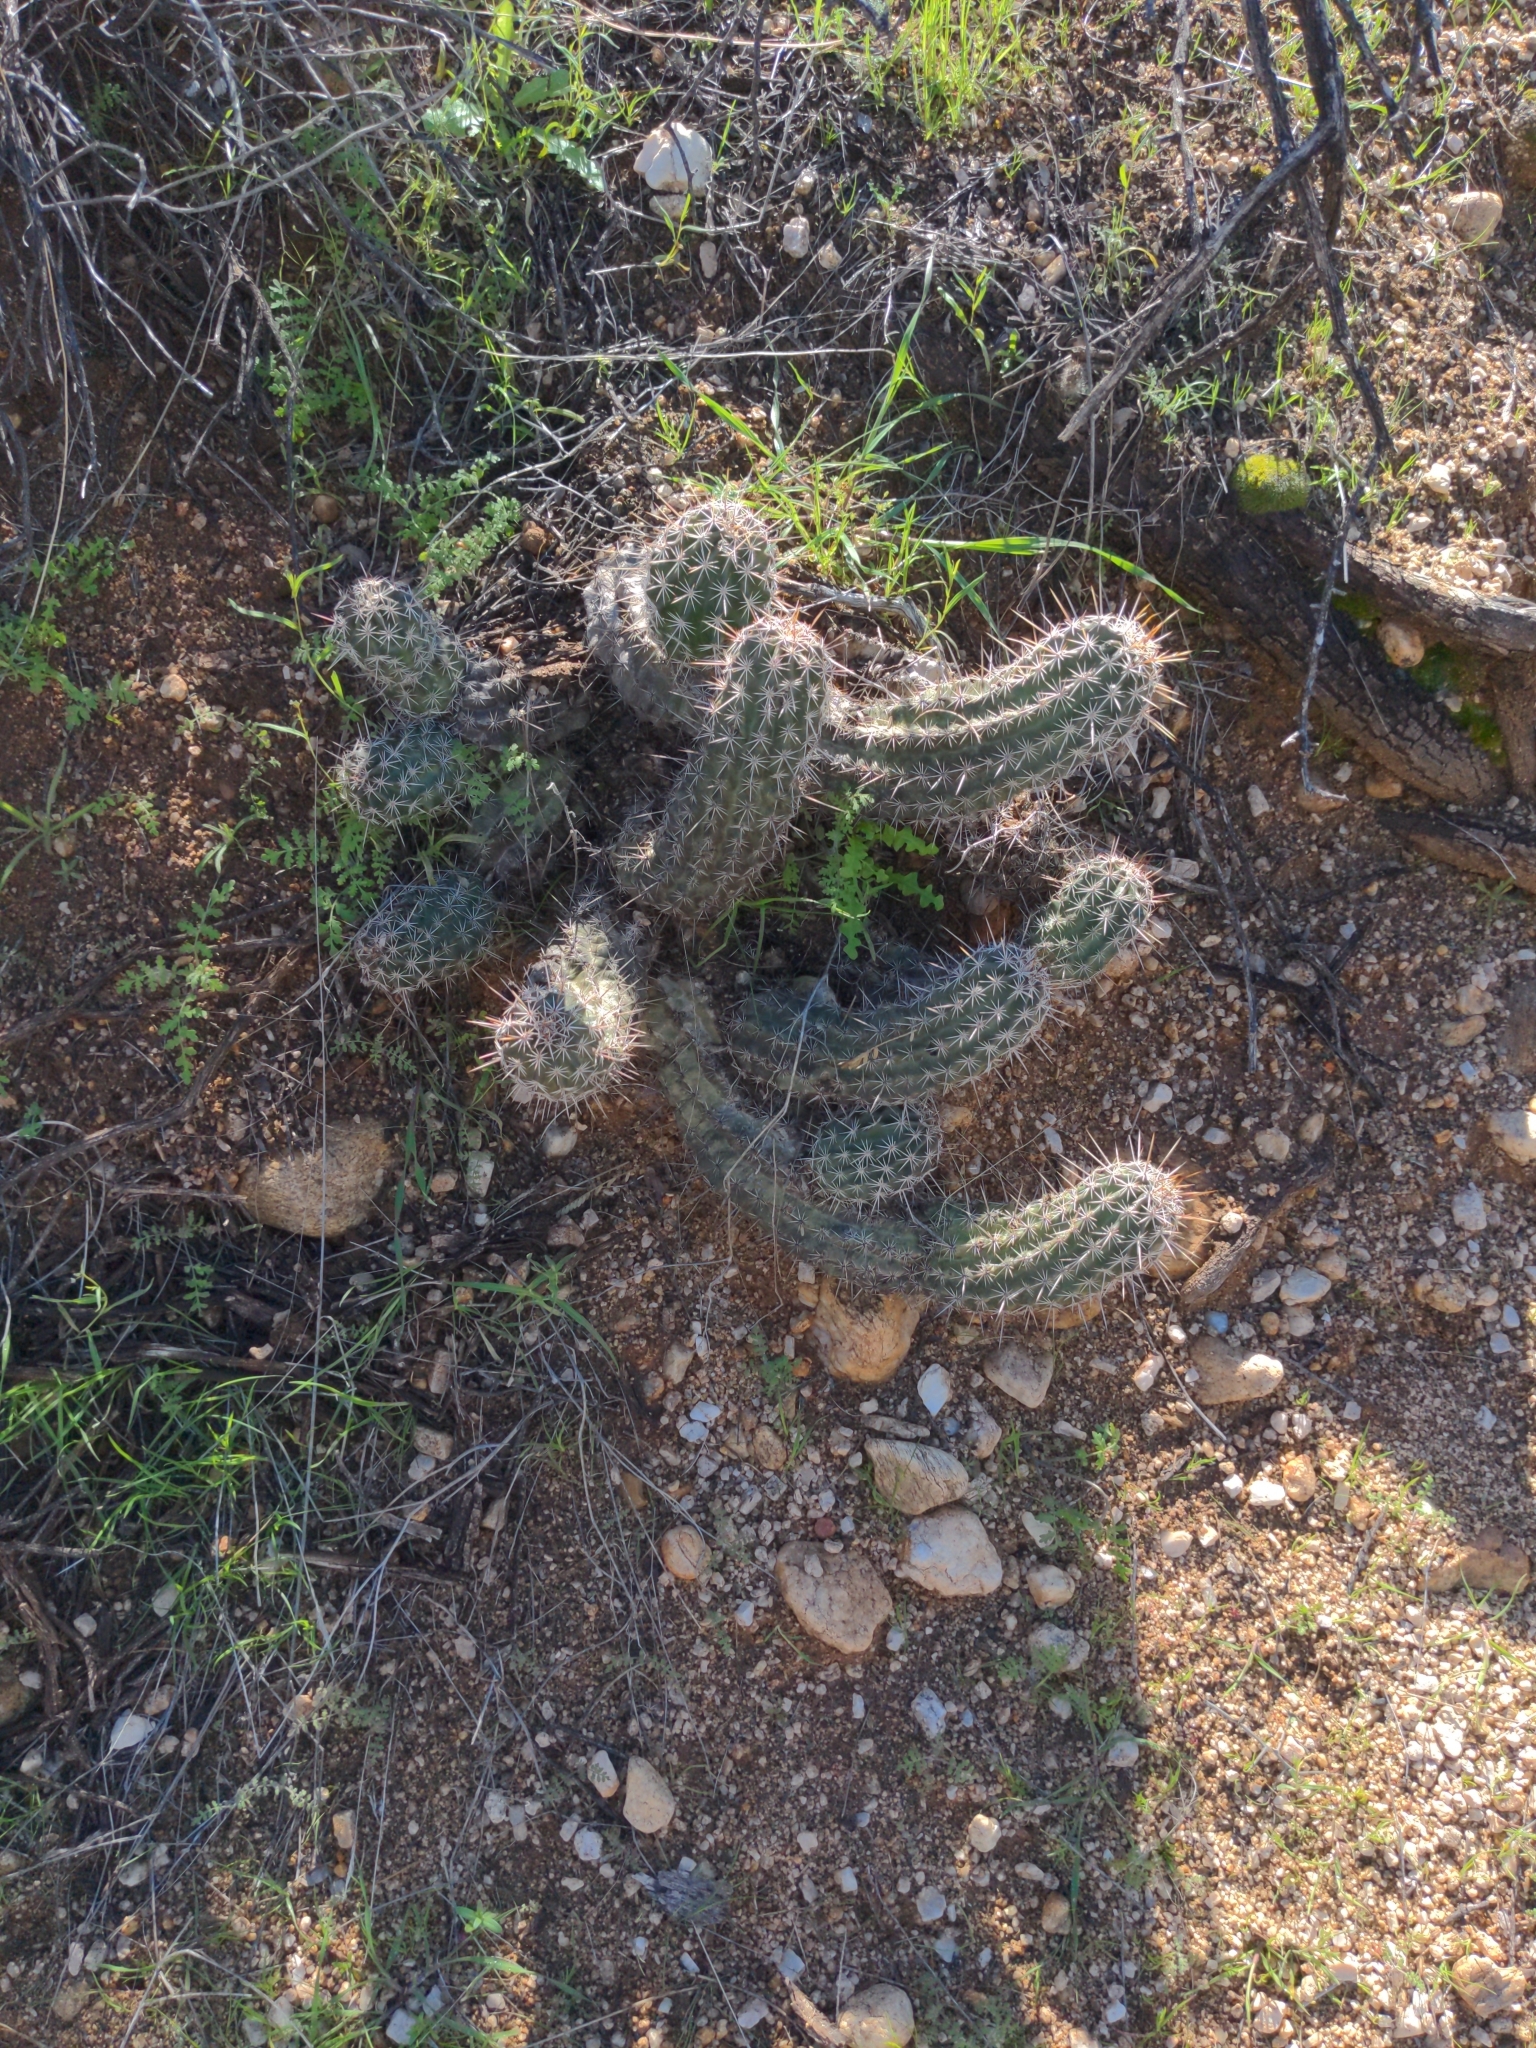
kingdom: Plantae
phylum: Tracheophyta
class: Magnoliopsida
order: Caryophyllales
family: Cactaceae
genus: Echinocereus
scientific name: Echinocereus fasciculatus
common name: Bundle hedgehog
